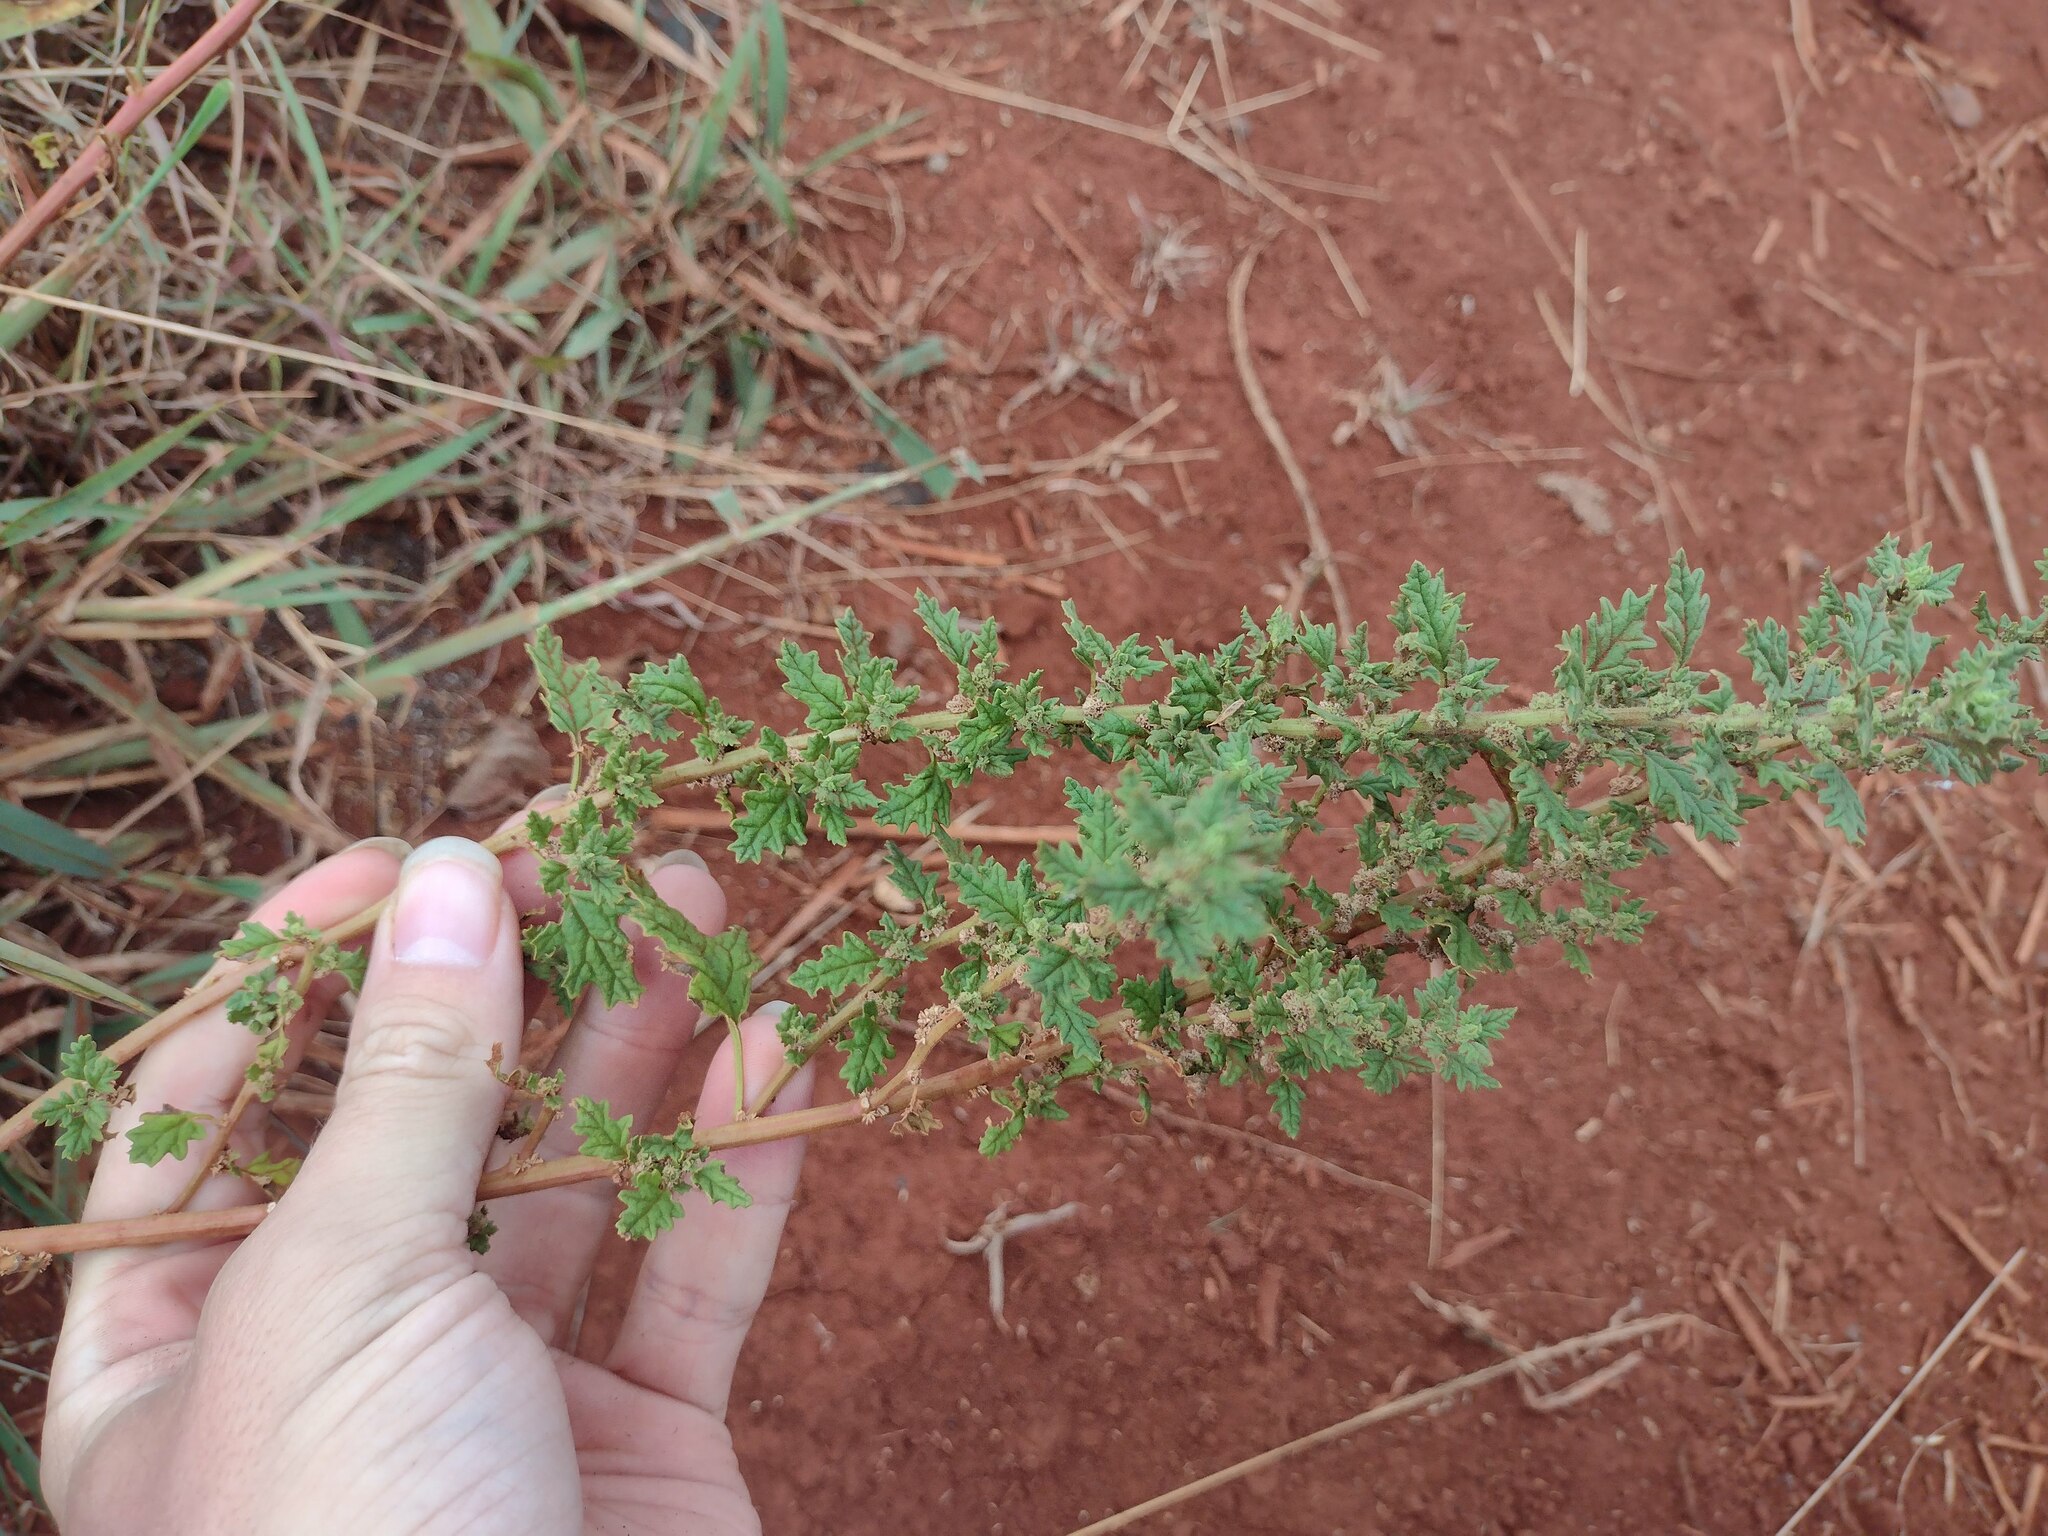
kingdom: Plantae
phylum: Tracheophyta
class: Magnoliopsida
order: Caryophyllales
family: Amaranthaceae
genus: Dysphania
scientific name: Dysphania carinata
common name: Keeled wormseed
